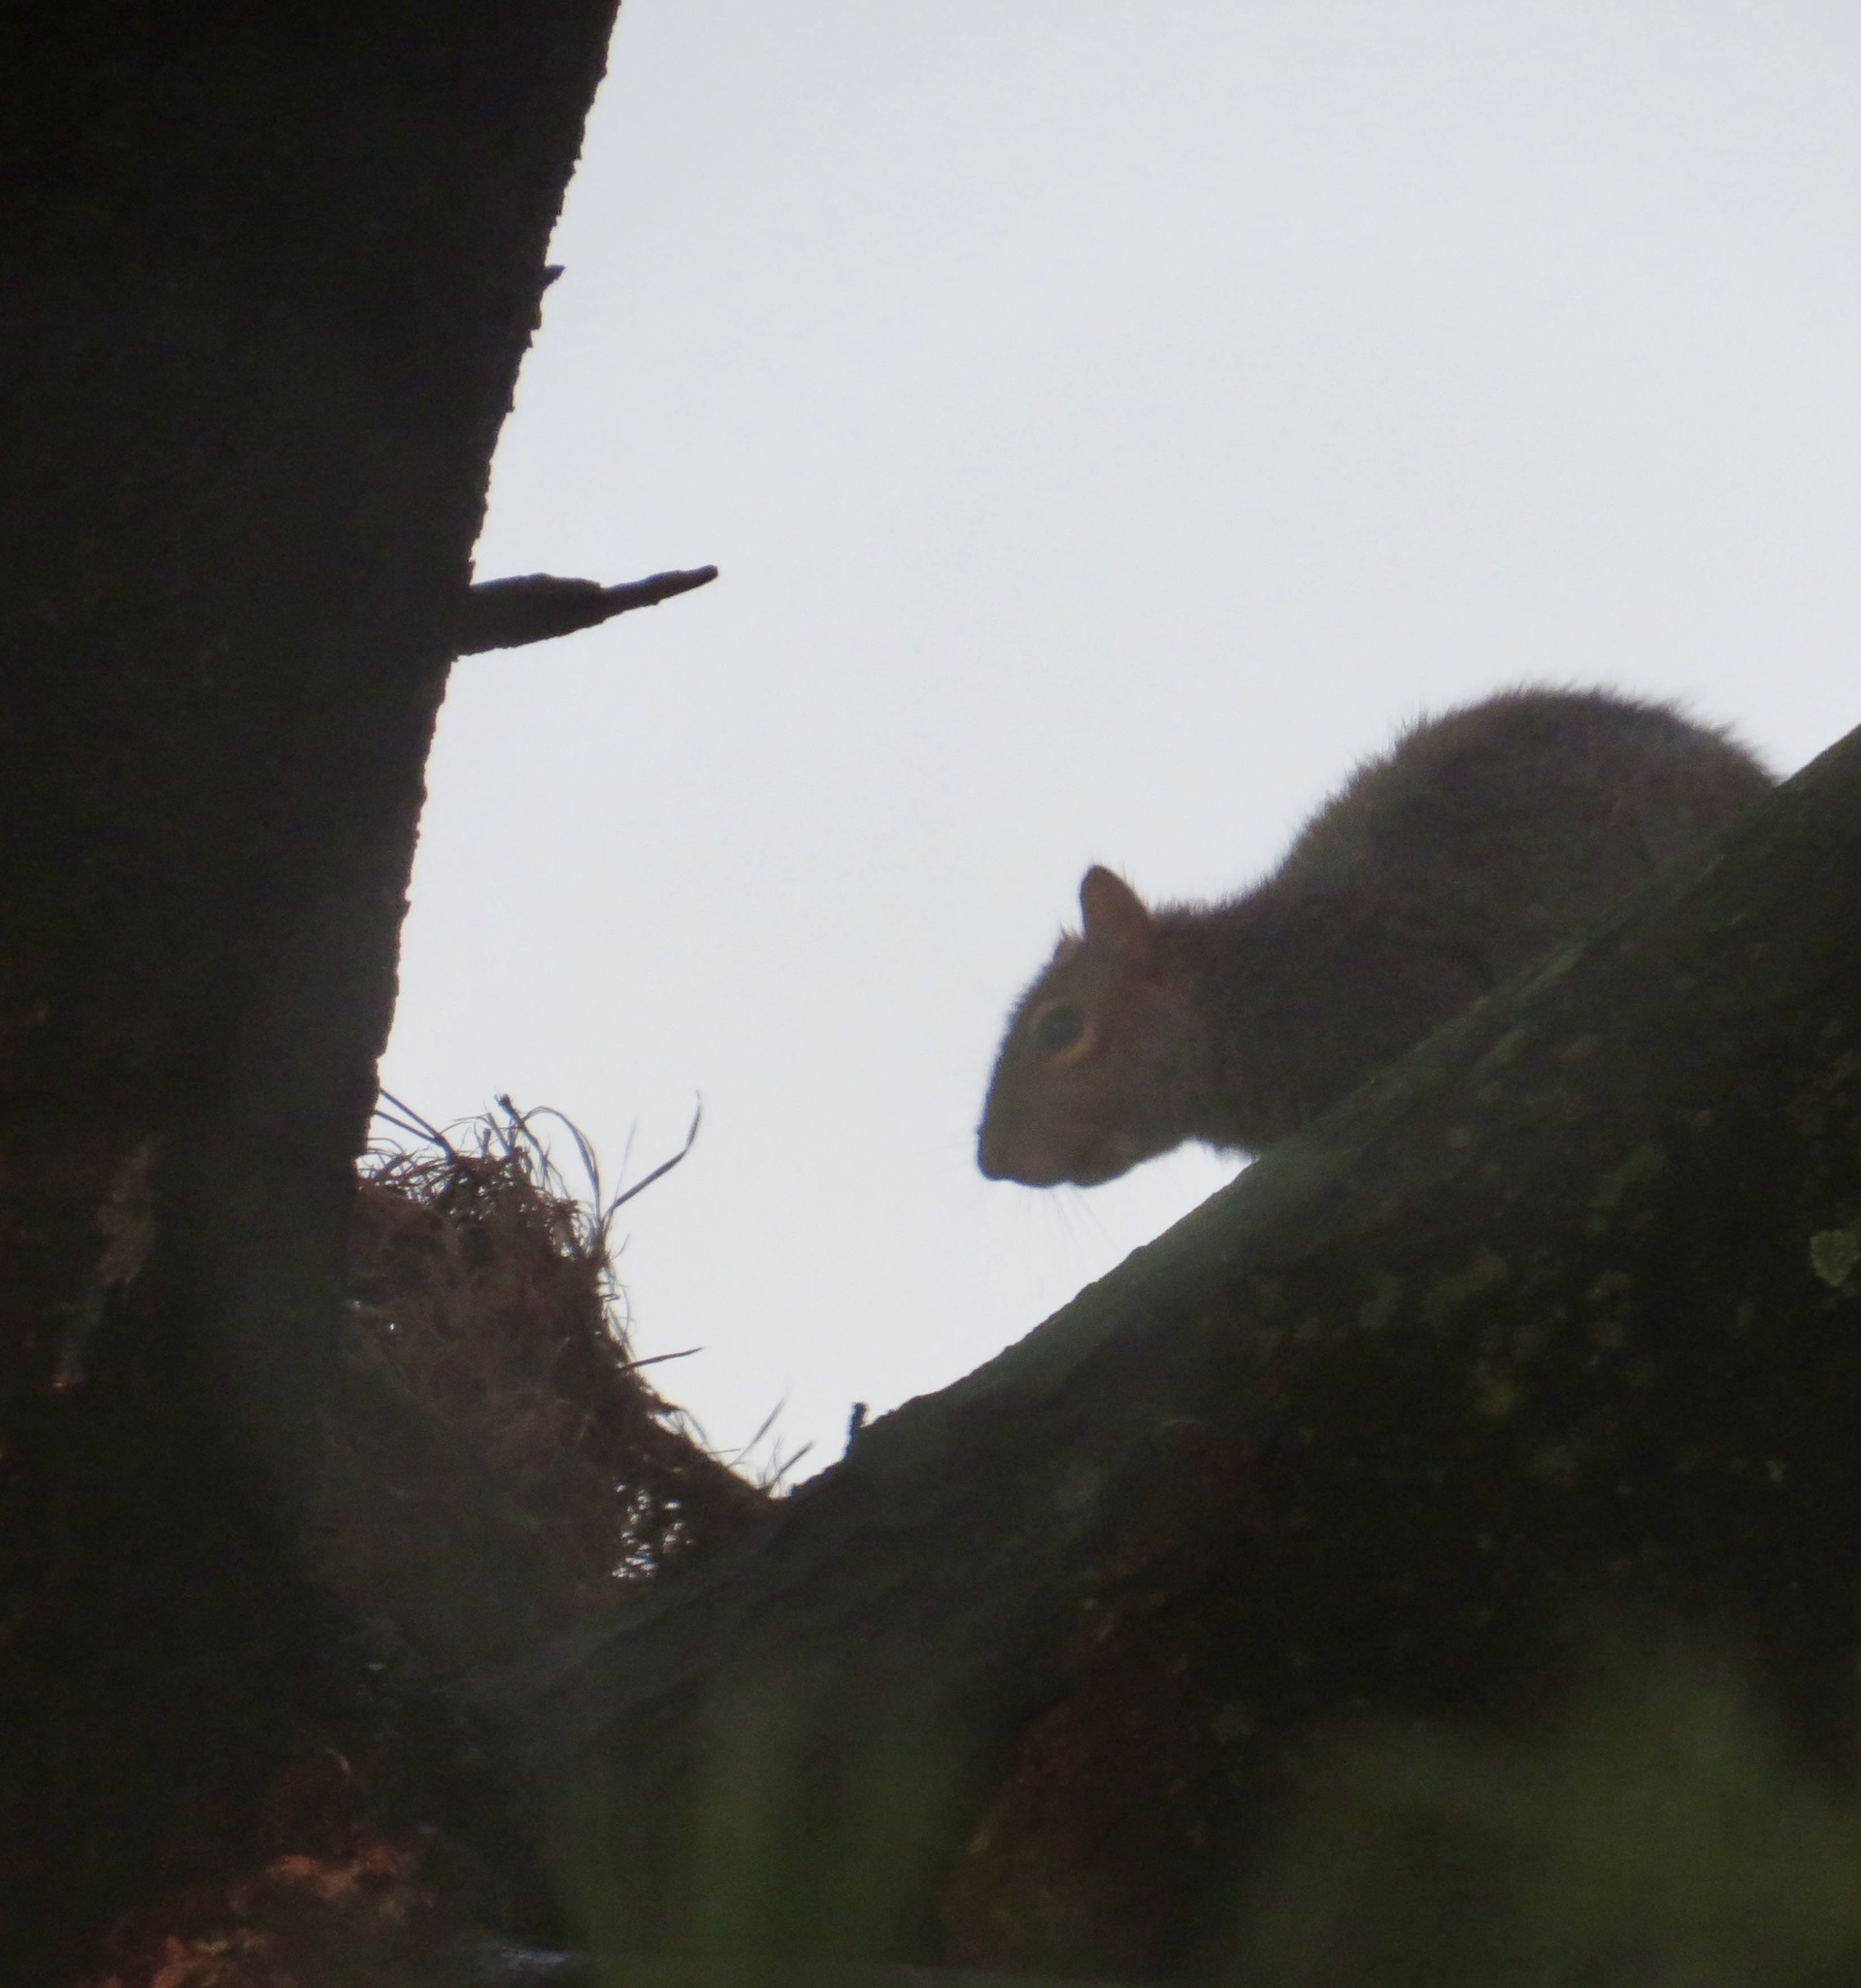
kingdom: Animalia
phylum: Chordata
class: Mammalia
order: Rodentia
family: Sciuridae
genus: Sciurus
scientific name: Sciurus carolinensis
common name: Eastern gray squirrel
